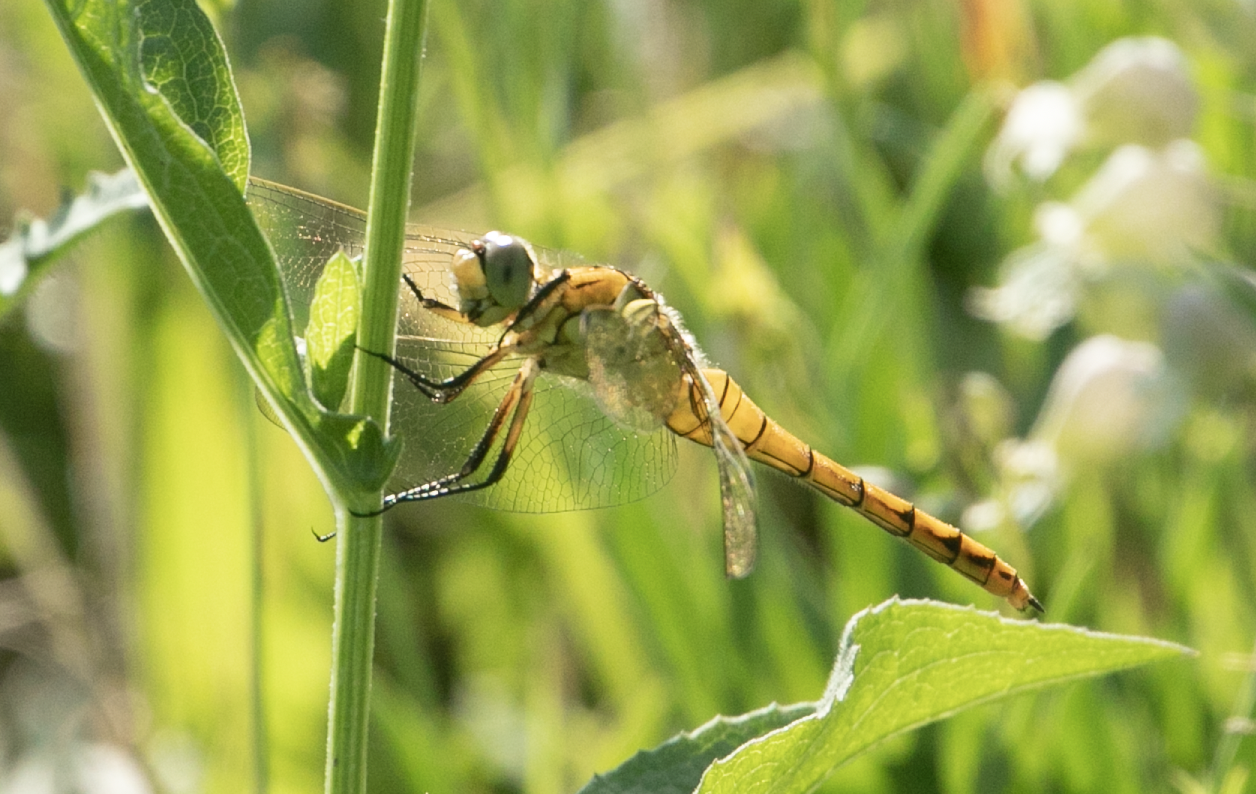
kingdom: Animalia
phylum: Arthropoda
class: Insecta
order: Odonata
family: Libellulidae
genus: Orthetrum
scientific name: Orthetrum cancellatum
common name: Black-tailed skimmer
